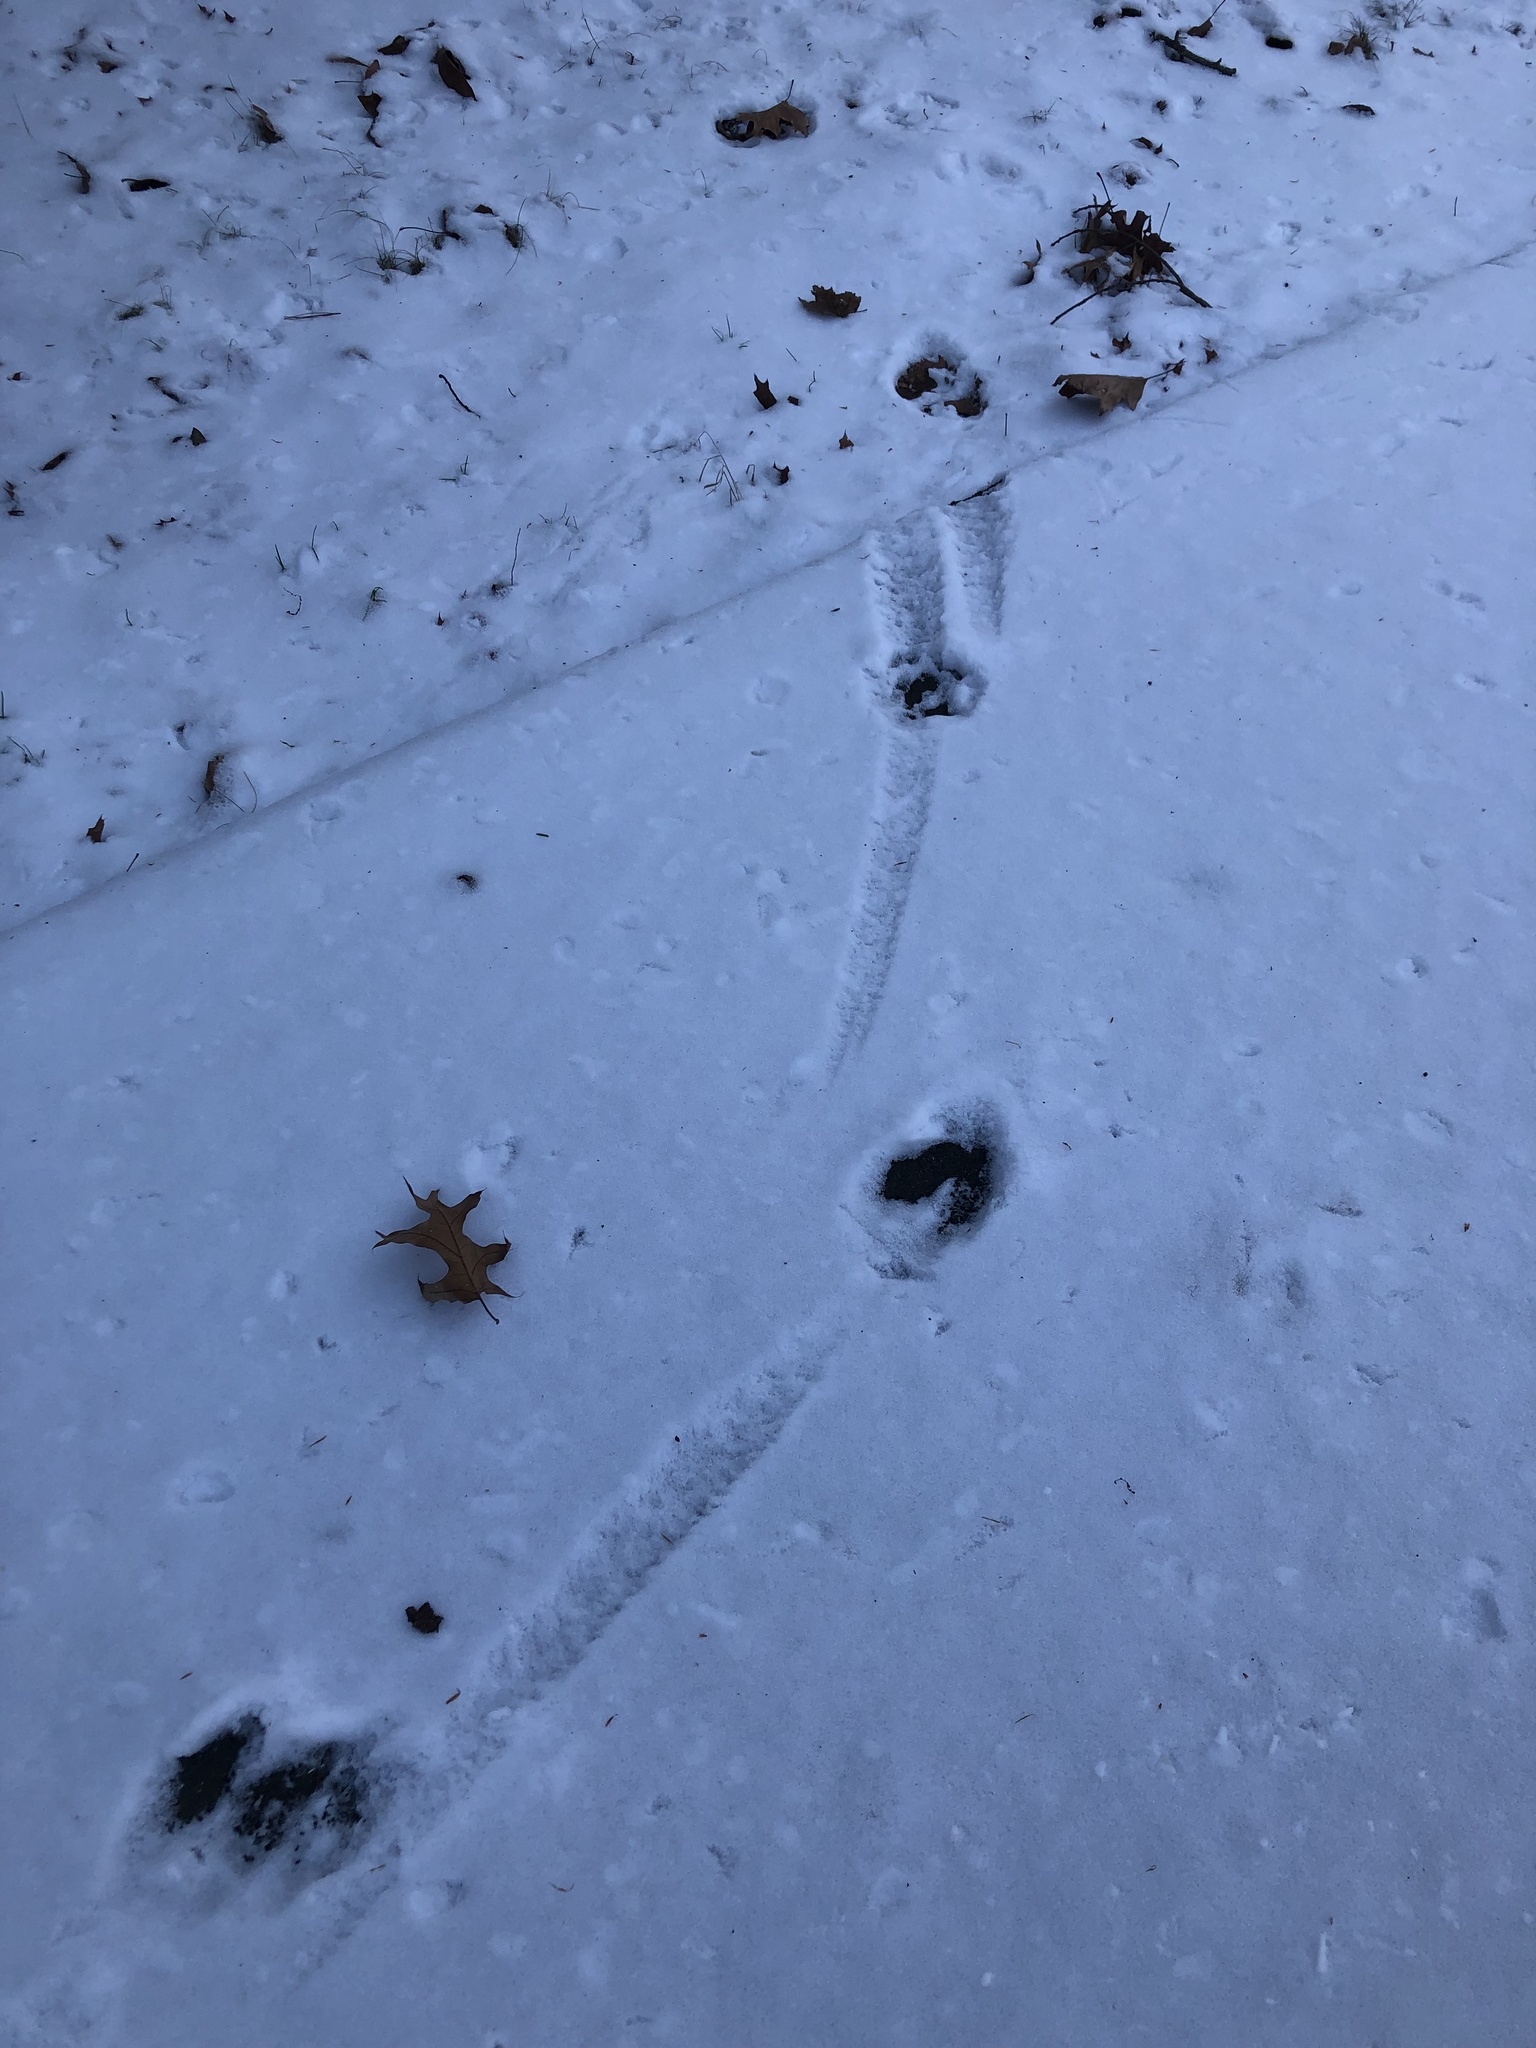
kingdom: Animalia
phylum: Chordata
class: Mammalia
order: Artiodactyla
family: Cervidae
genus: Odocoileus
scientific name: Odocoileus virginianus
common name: White-tailed deer
